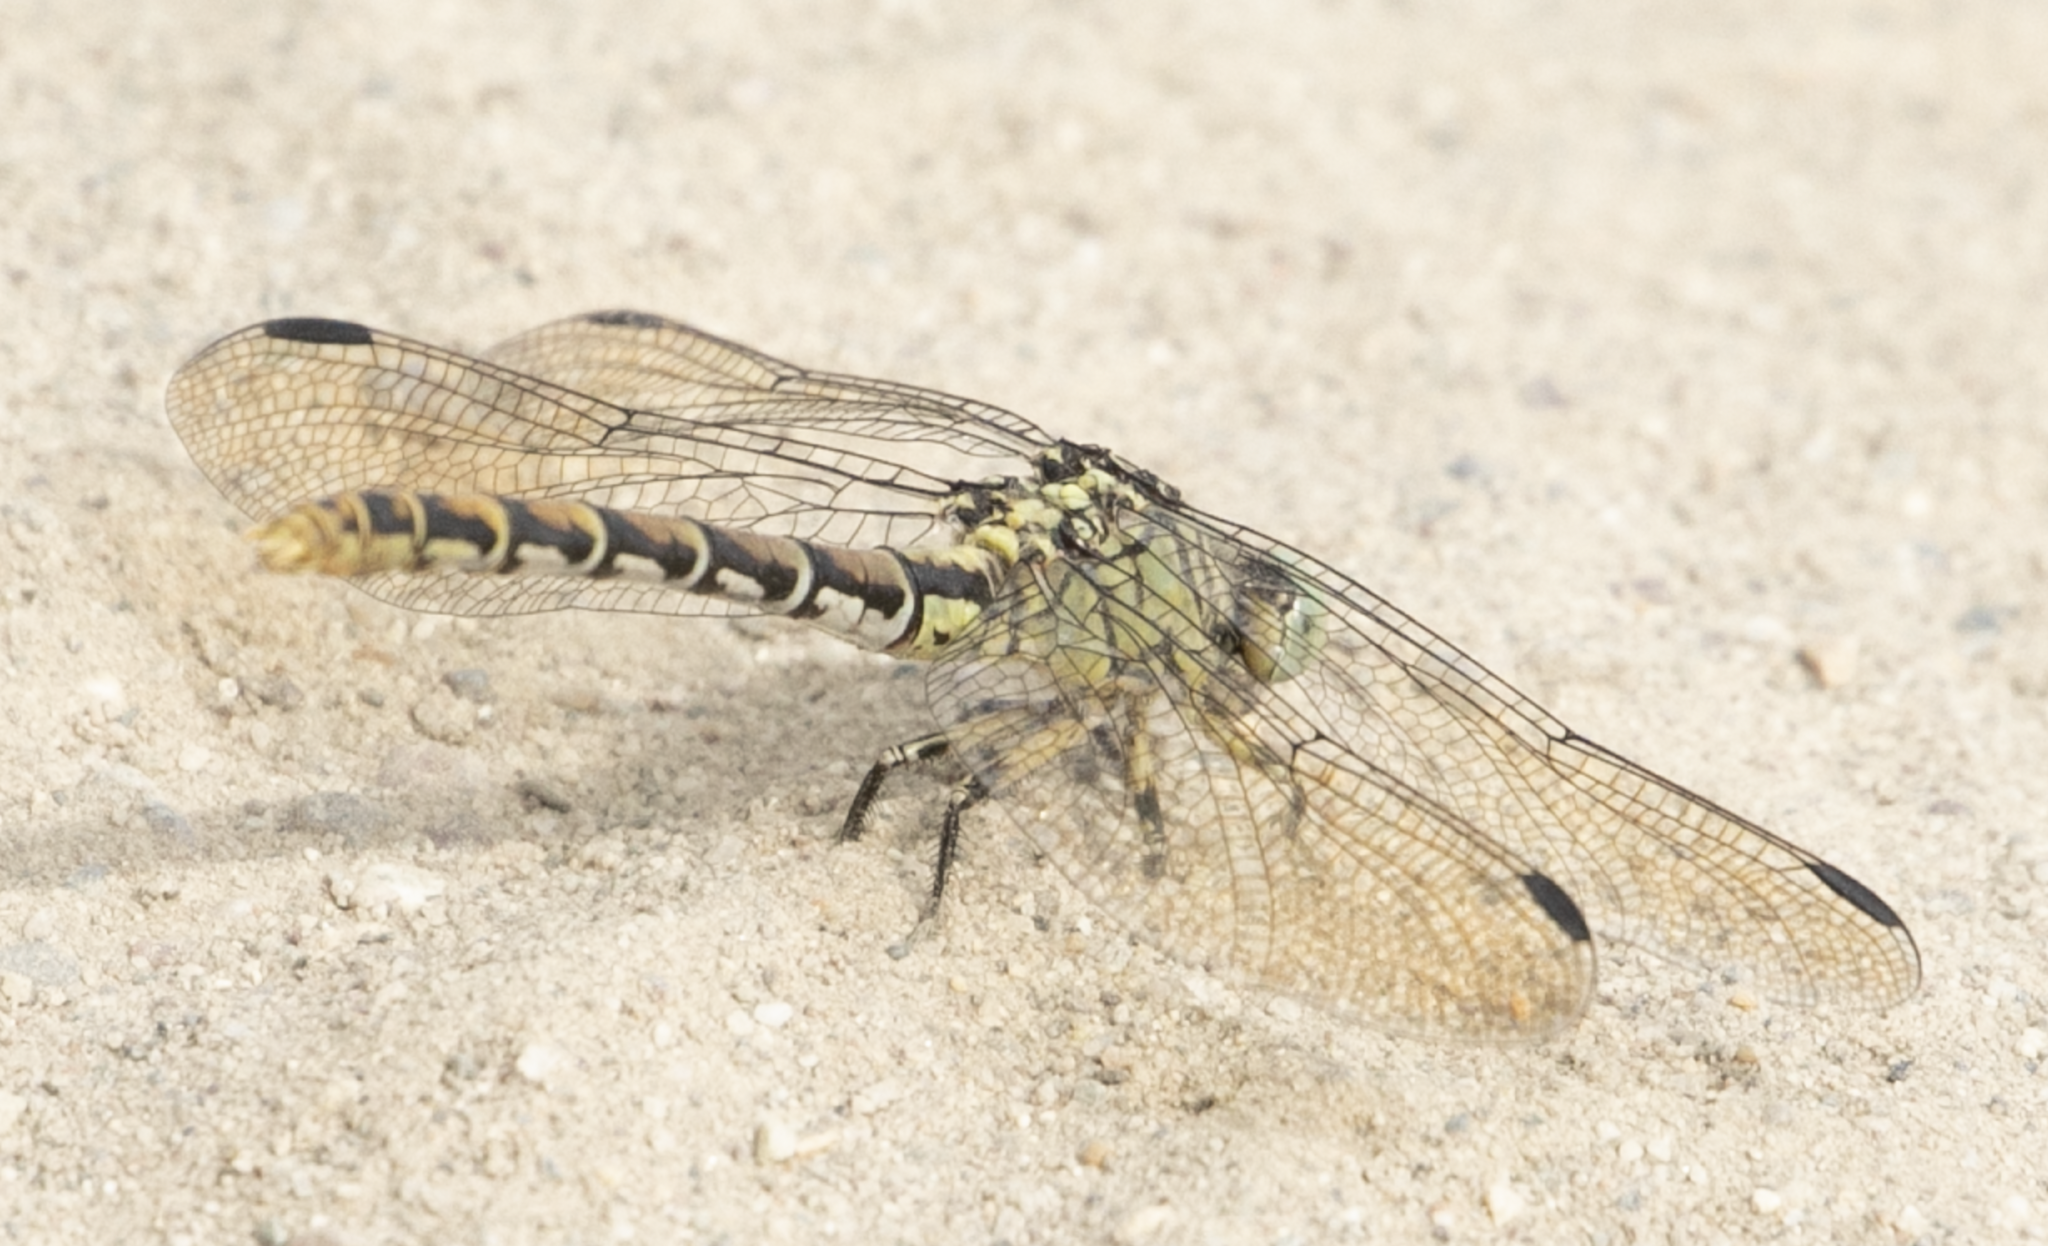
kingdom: Animalia
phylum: Arthropoda
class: Insecta
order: Odonata
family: Gomphidae
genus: Onychogomphus
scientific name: Onychogomphus forcipatus
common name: Small pincertail
